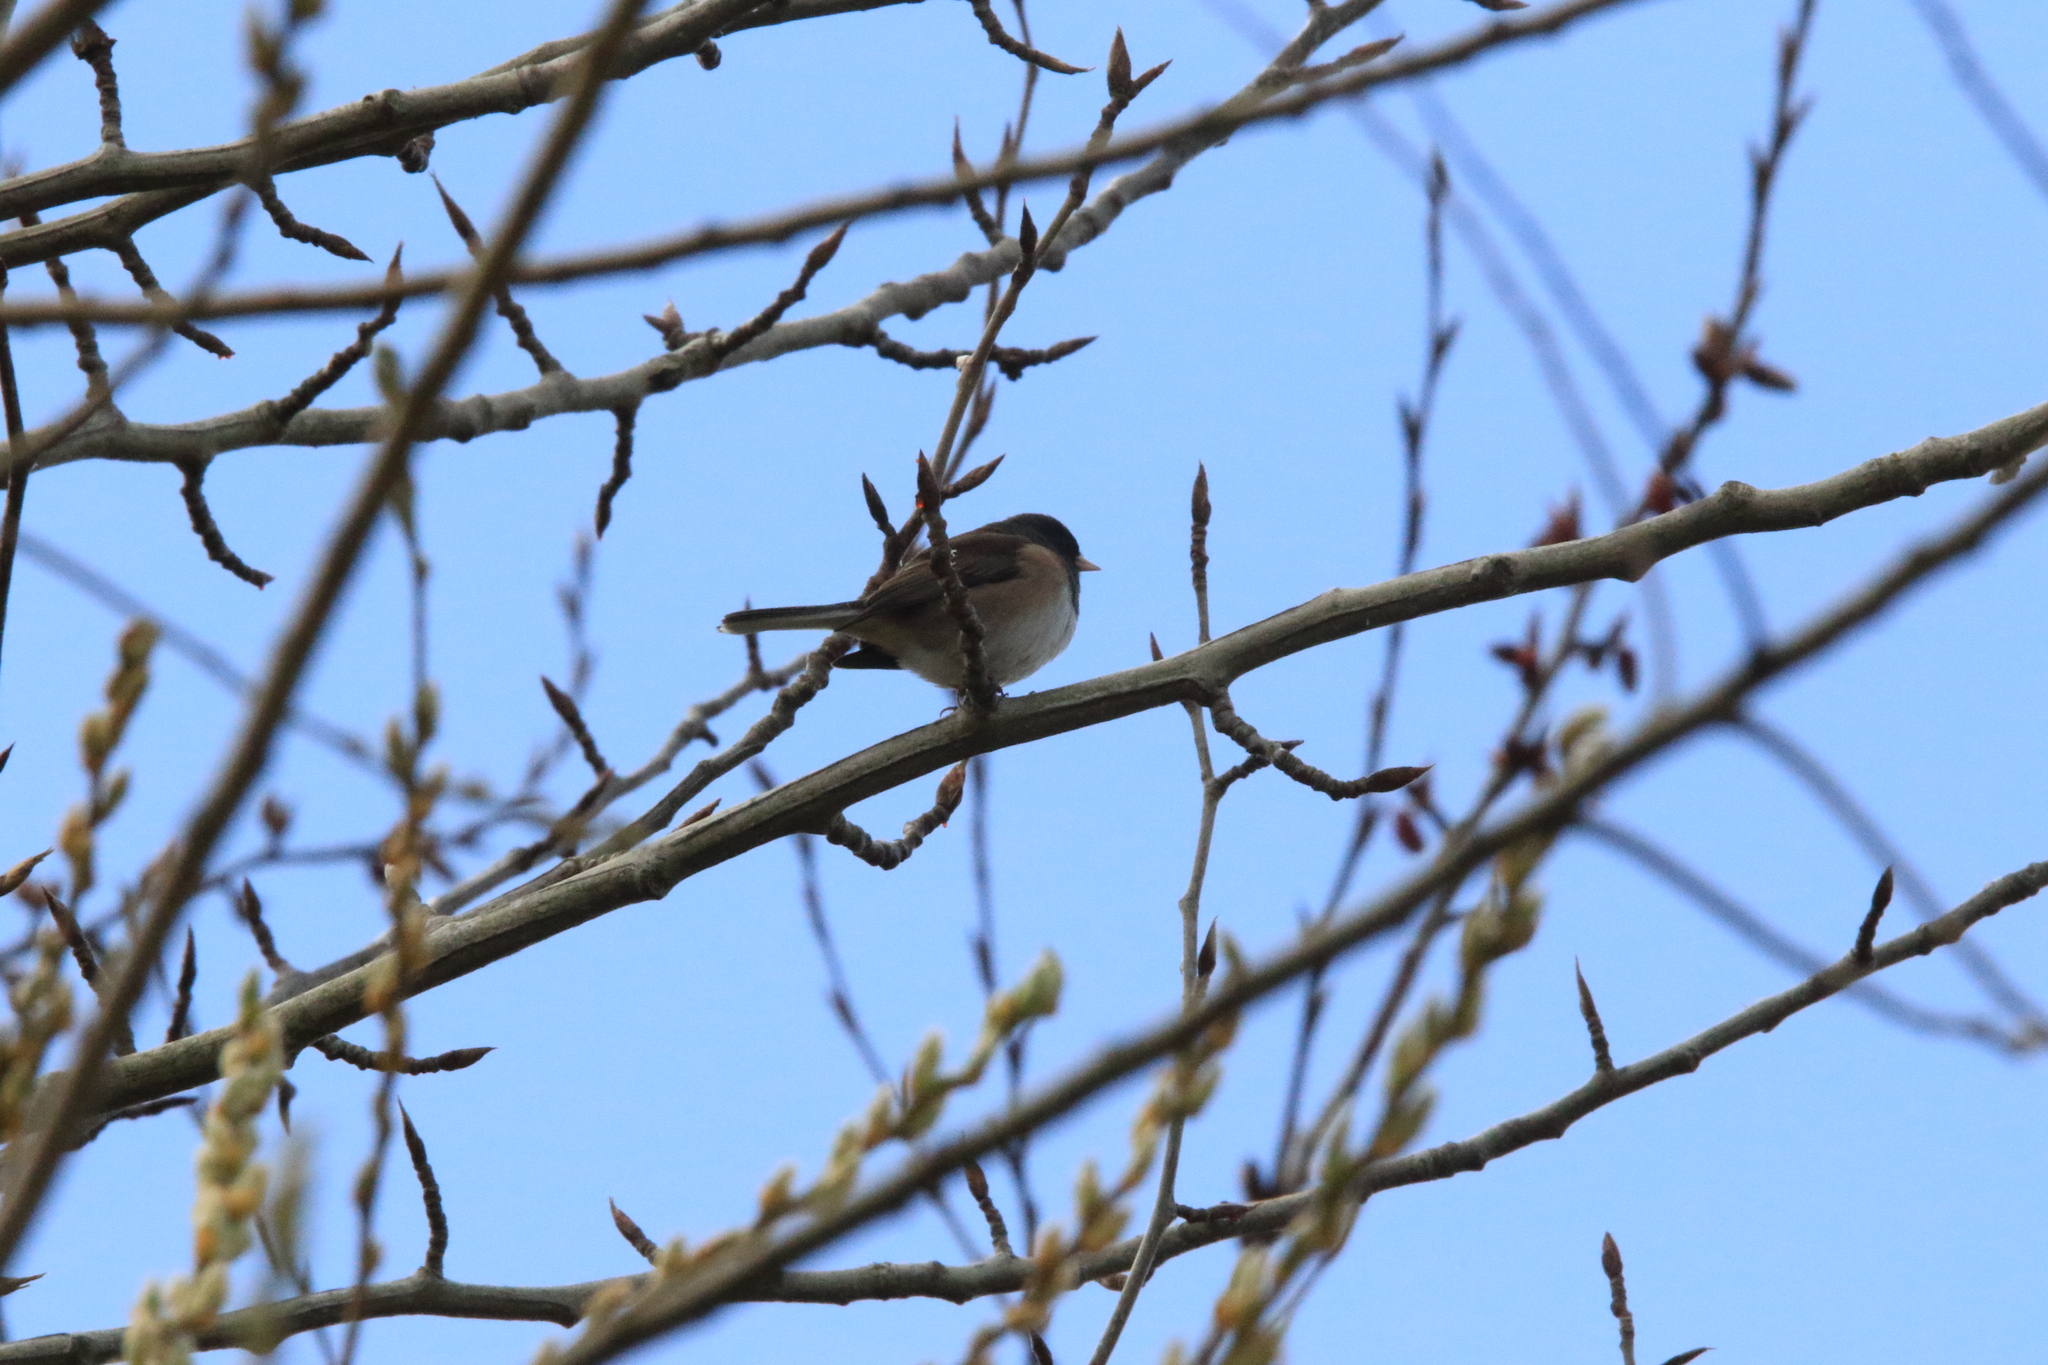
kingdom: Animalia
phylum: Chordata
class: Aves
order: Passeriformes
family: Passerellidae
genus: Junco
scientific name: Junco hyemalis
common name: Dark-eyed junco
